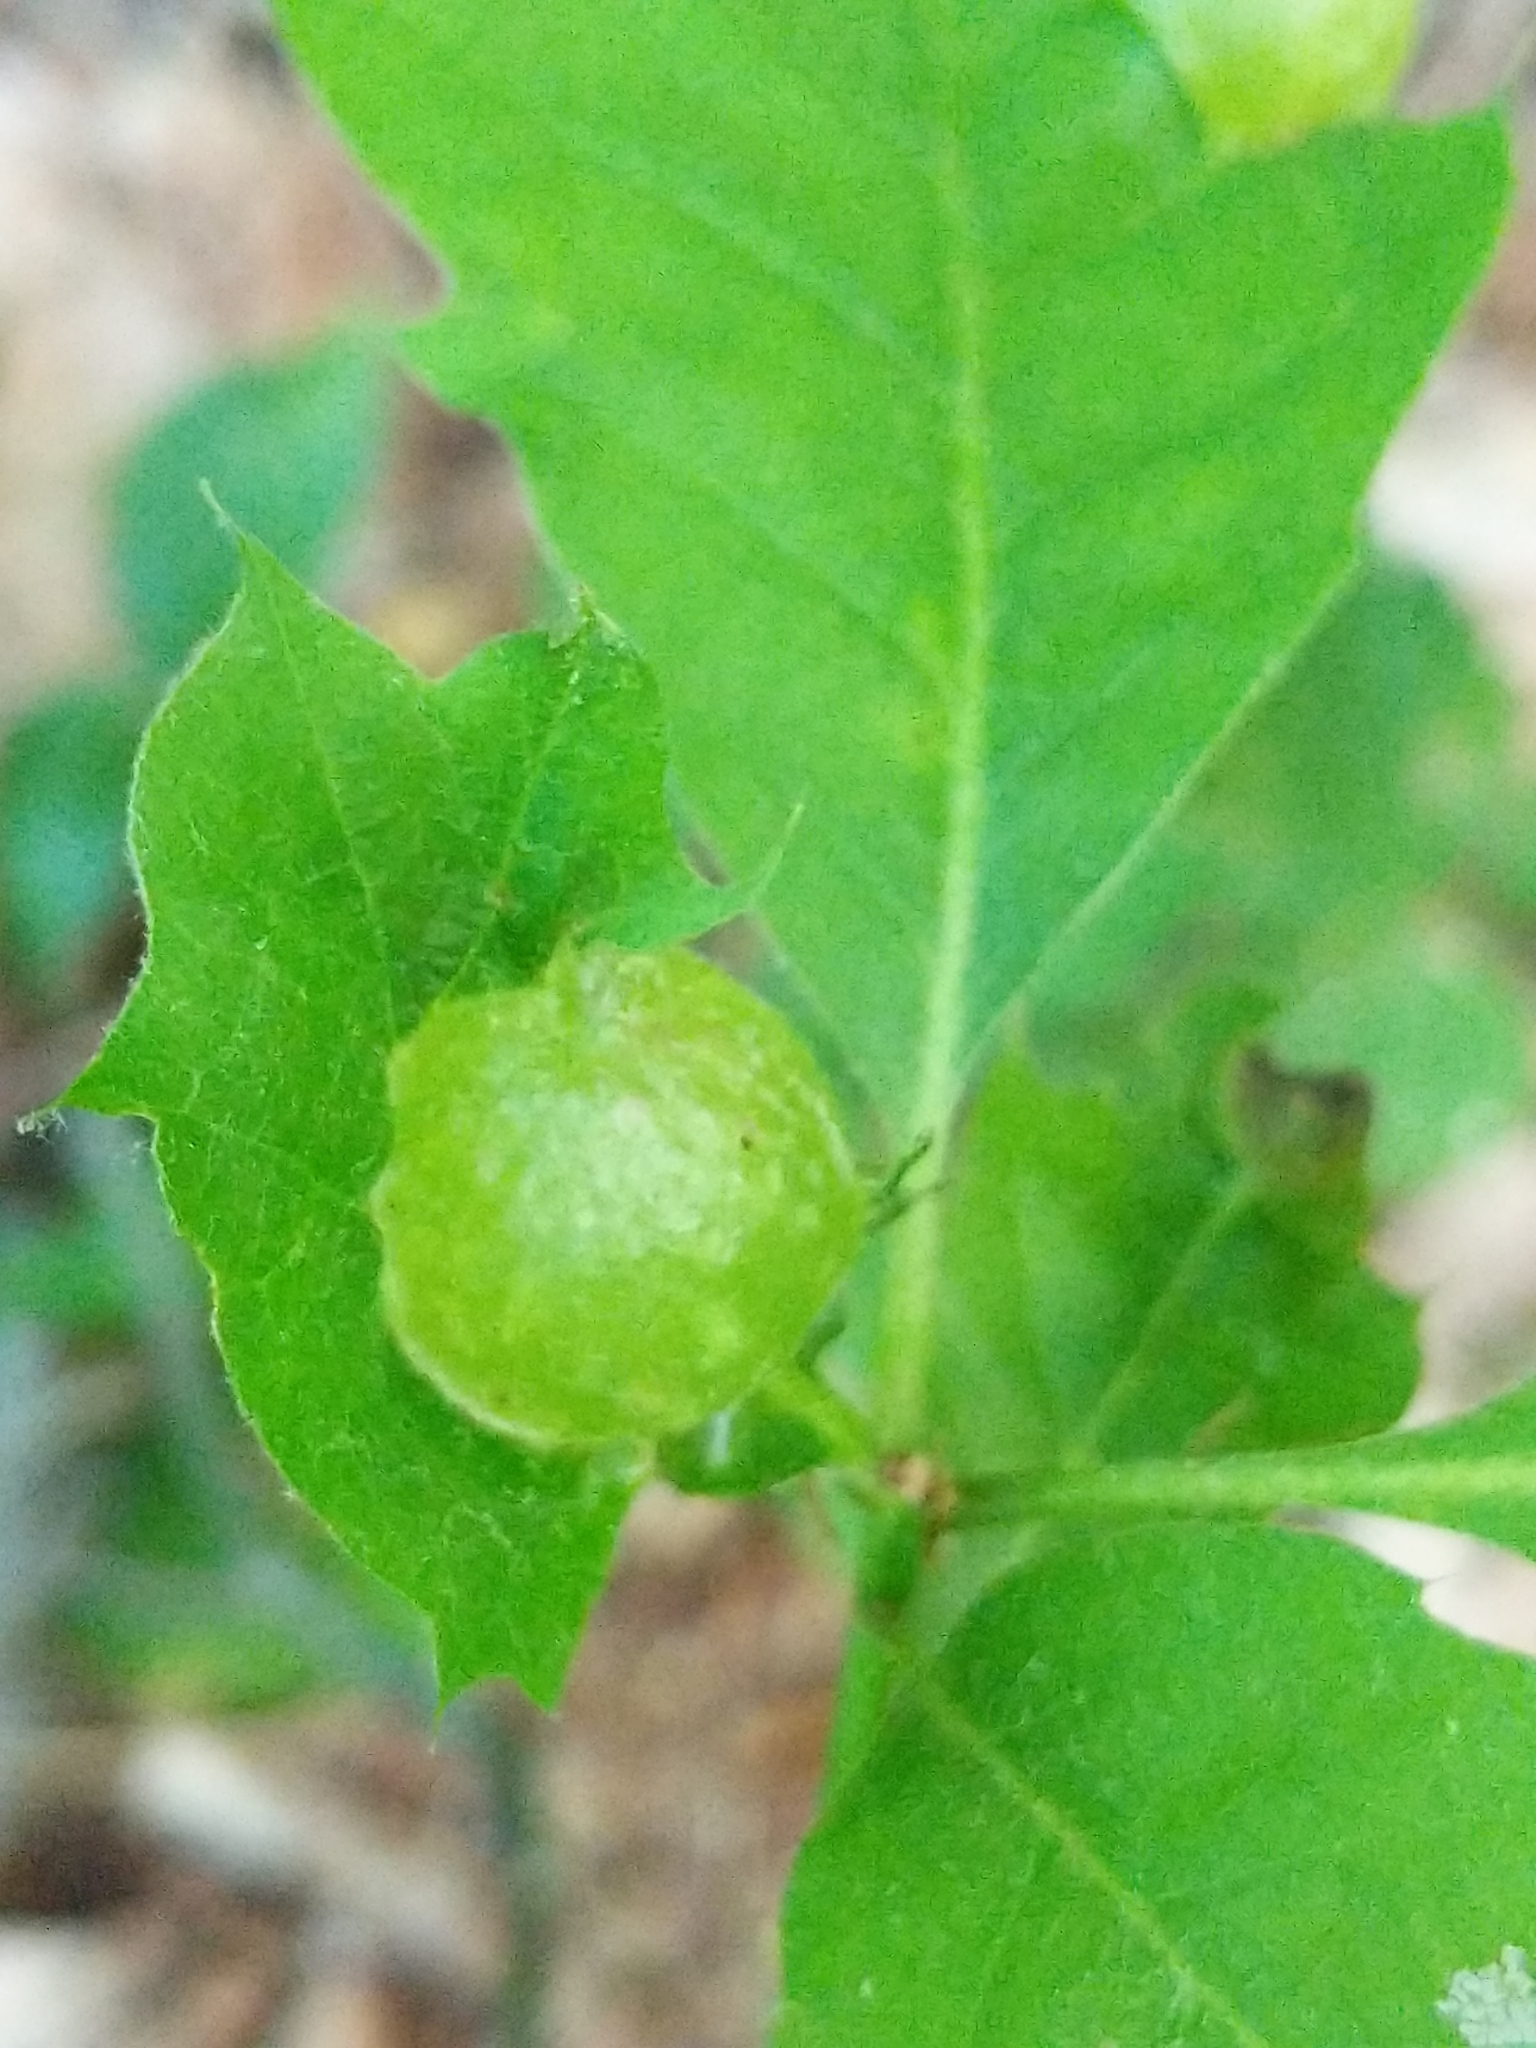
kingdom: Animalia
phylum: Arthropoda
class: Insecta
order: Hymenoptera
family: Cynipidae
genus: Dryocosmus
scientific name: Dryocosmus quercuspalustris
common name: Succulent oak gall wasp
